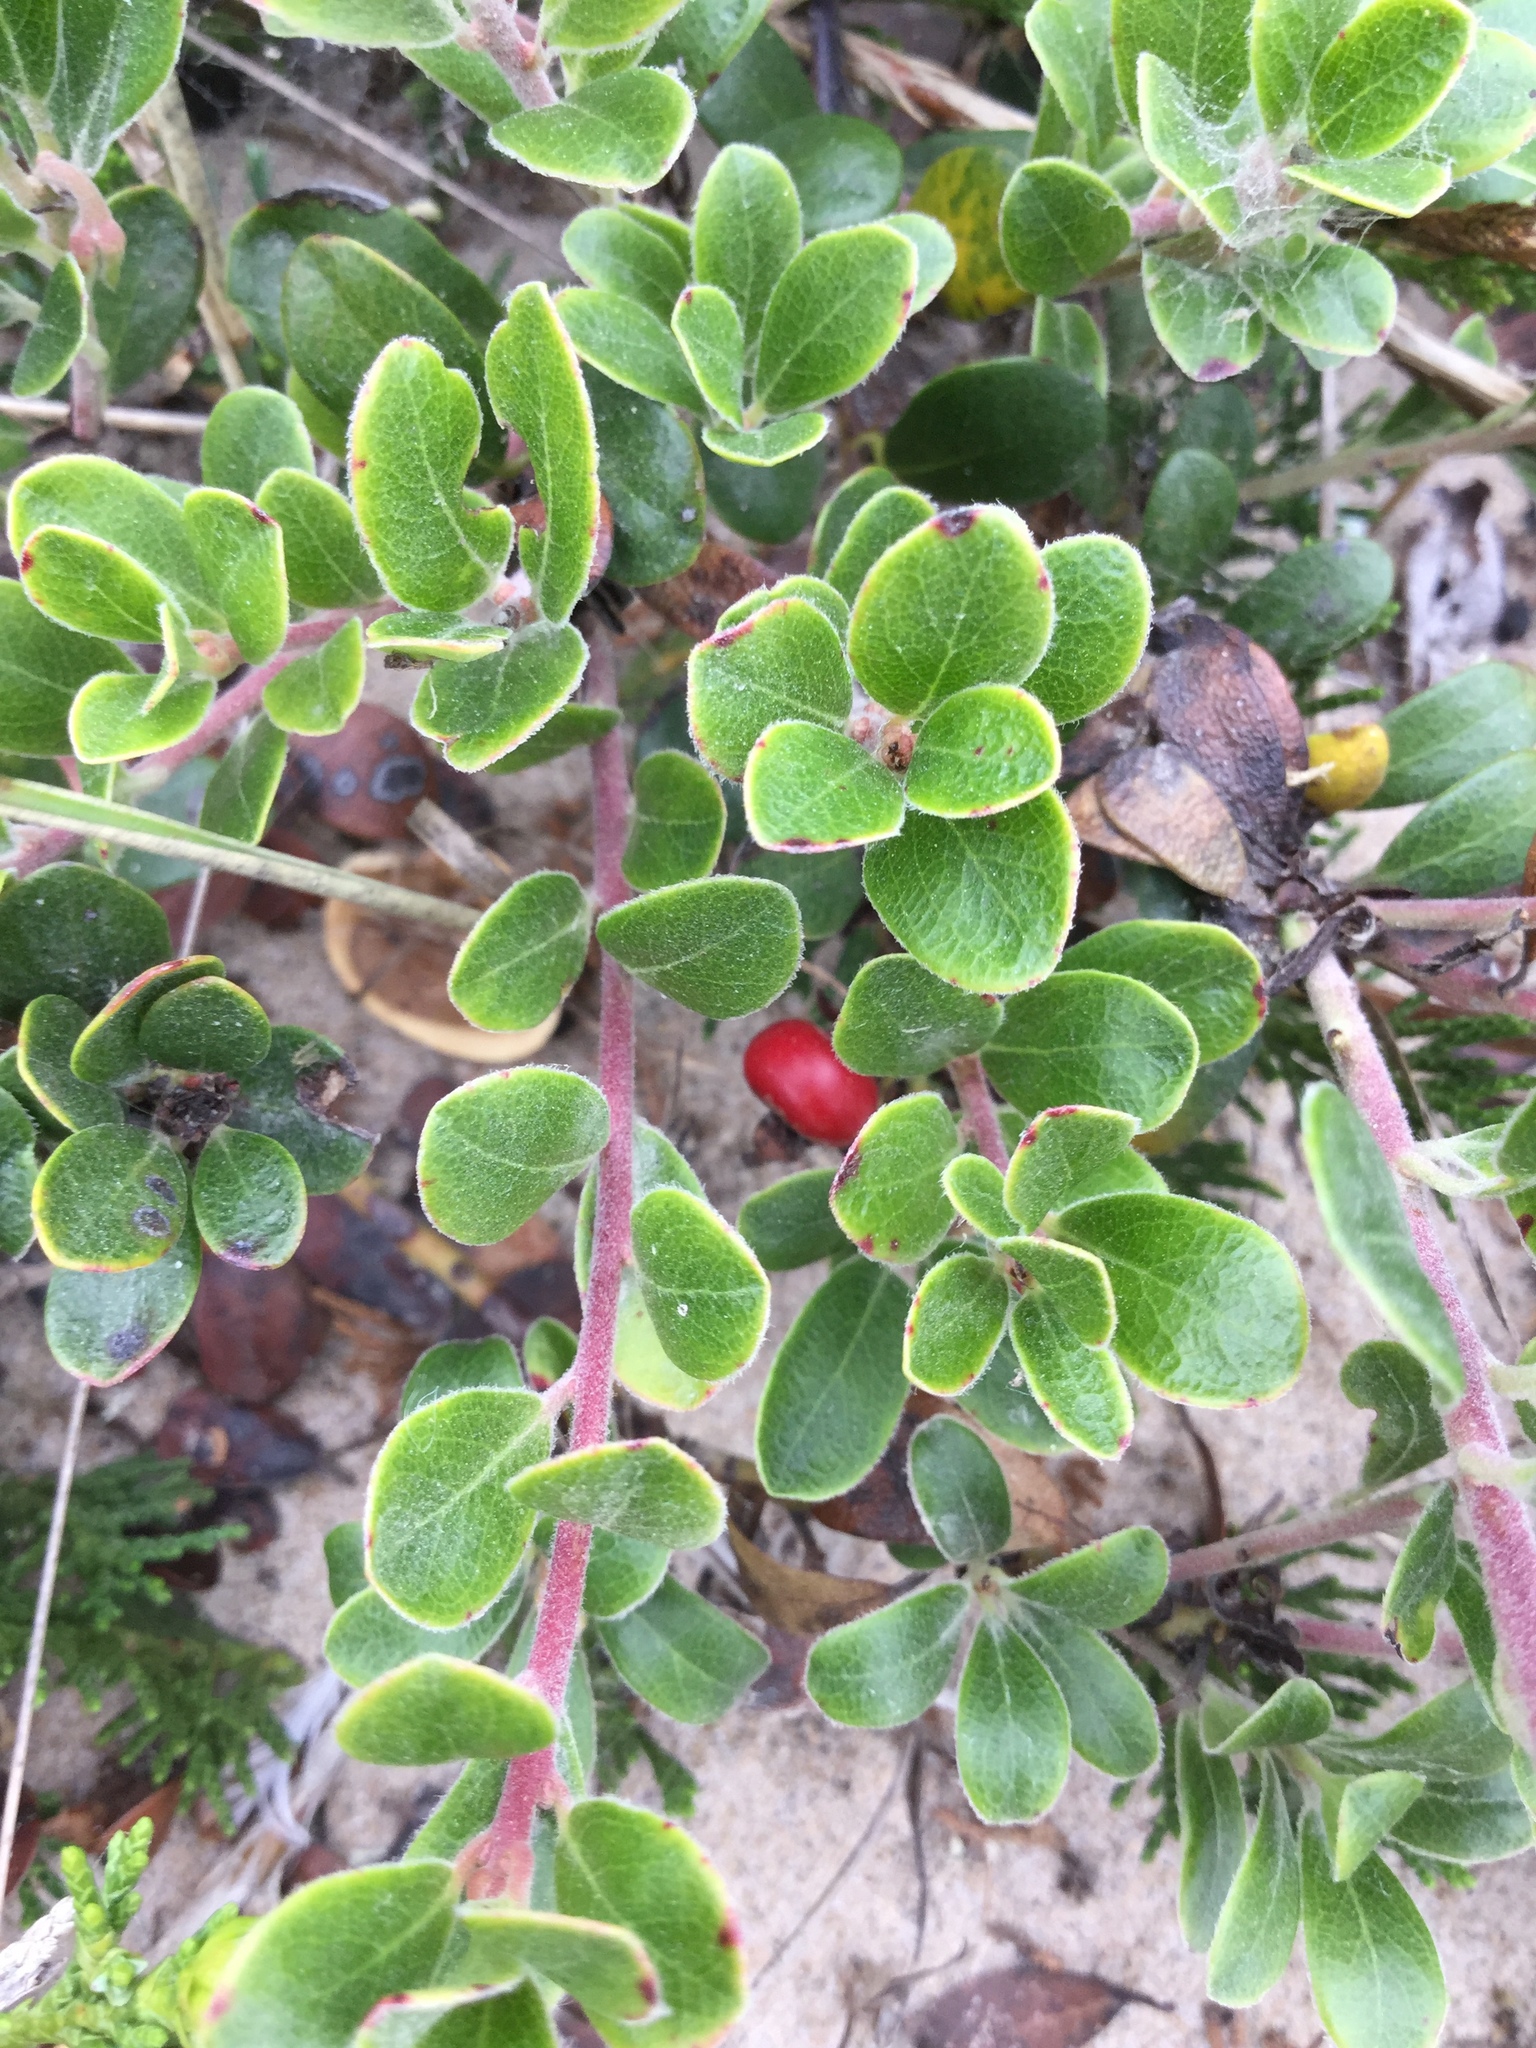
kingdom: Plantae
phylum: Tracheophyta
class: Magnoliopsida
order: Ericales
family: Ericaceae
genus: Arctostaphylos
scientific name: Arctostaphylos uva-ursi
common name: Bearberry
